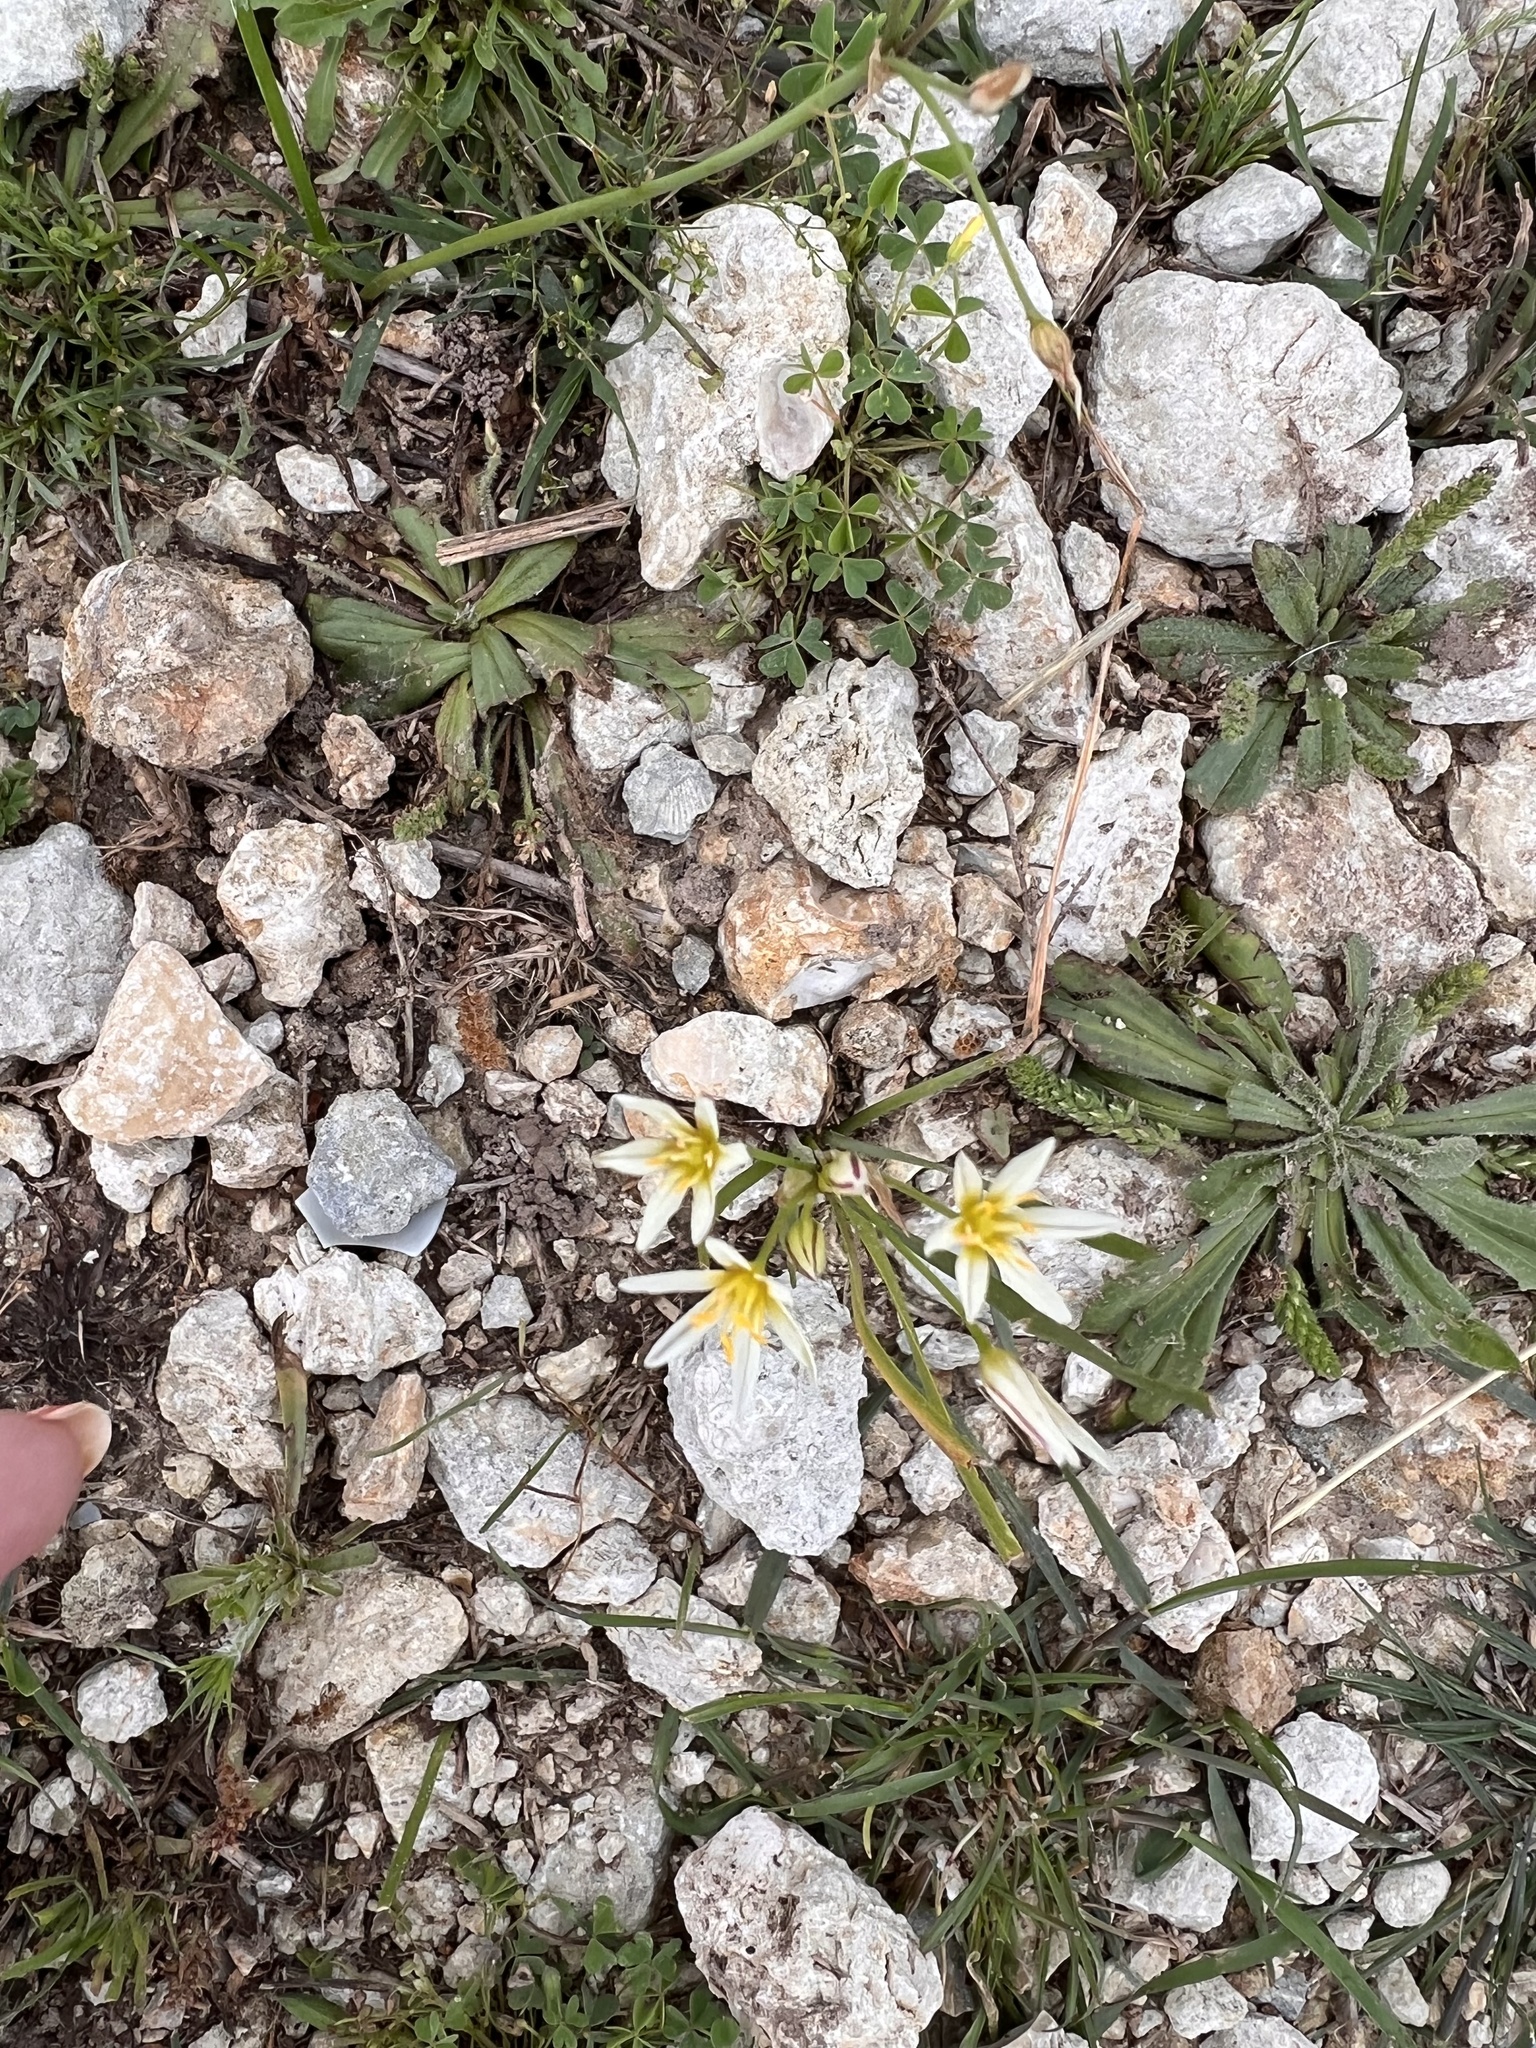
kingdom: Plantae
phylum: Tracheophyta
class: Liliopsida
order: Asparagales
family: Amaryllidaceae
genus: Nothoscordum
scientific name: Nothoscordum bivalve
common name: Crow-poison
